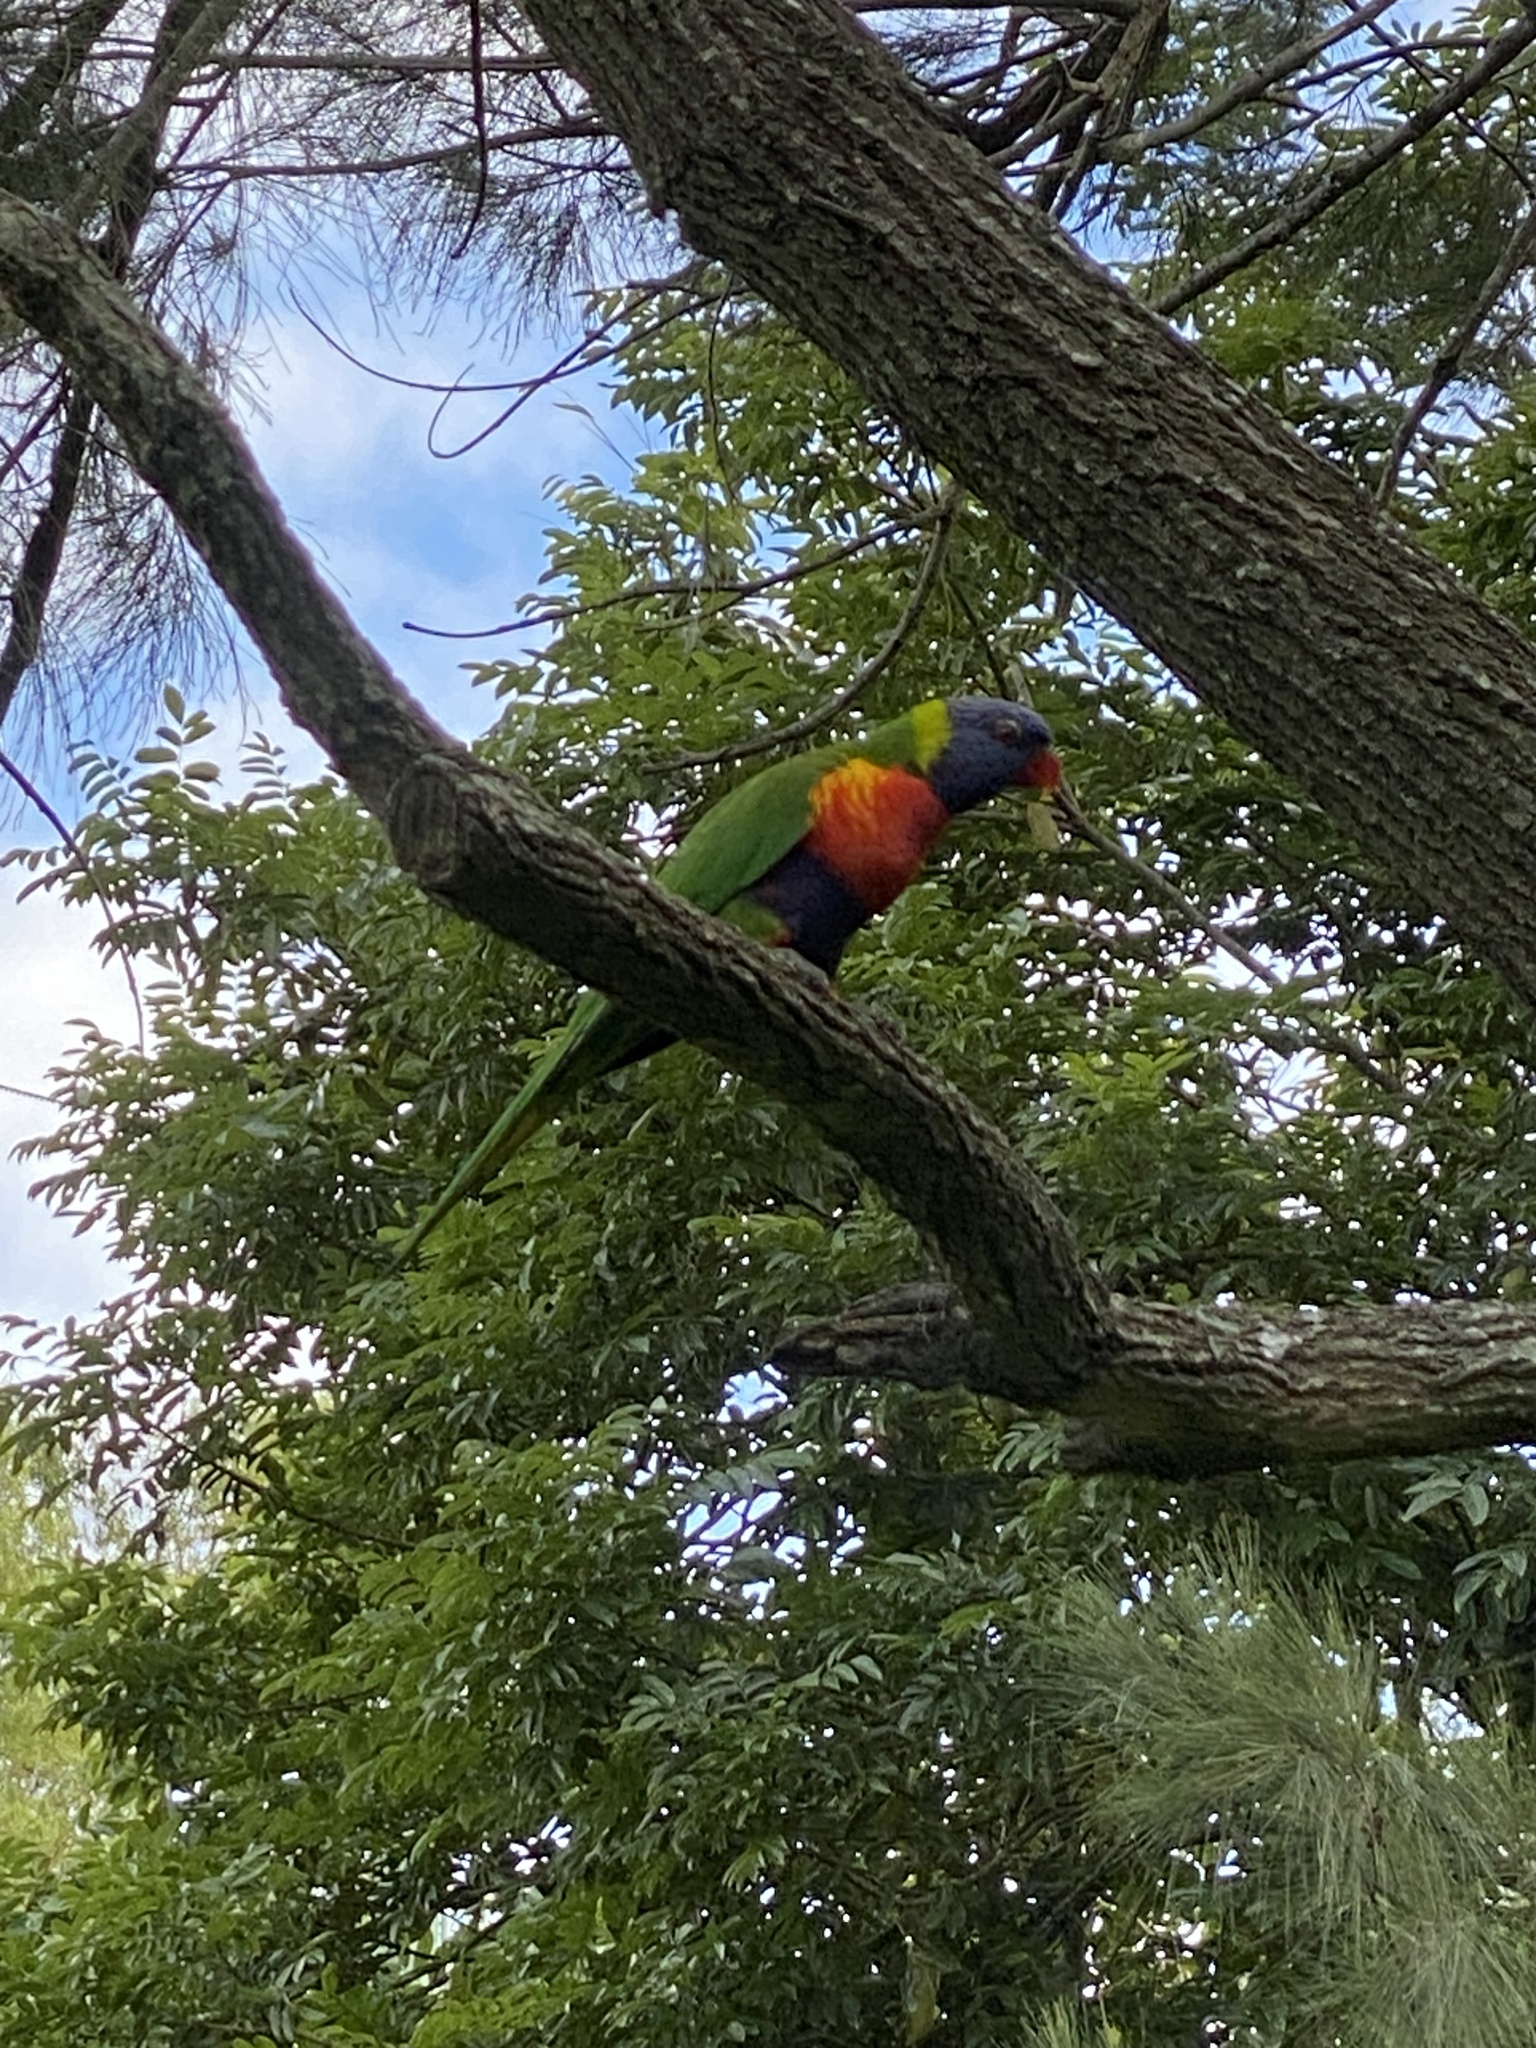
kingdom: Animalia
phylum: Chordata
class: Aves
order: Psittaciformes
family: Psittacidae
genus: Trichoglossus
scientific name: Trichoglossus haematodus
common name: Coconut lorikeet
